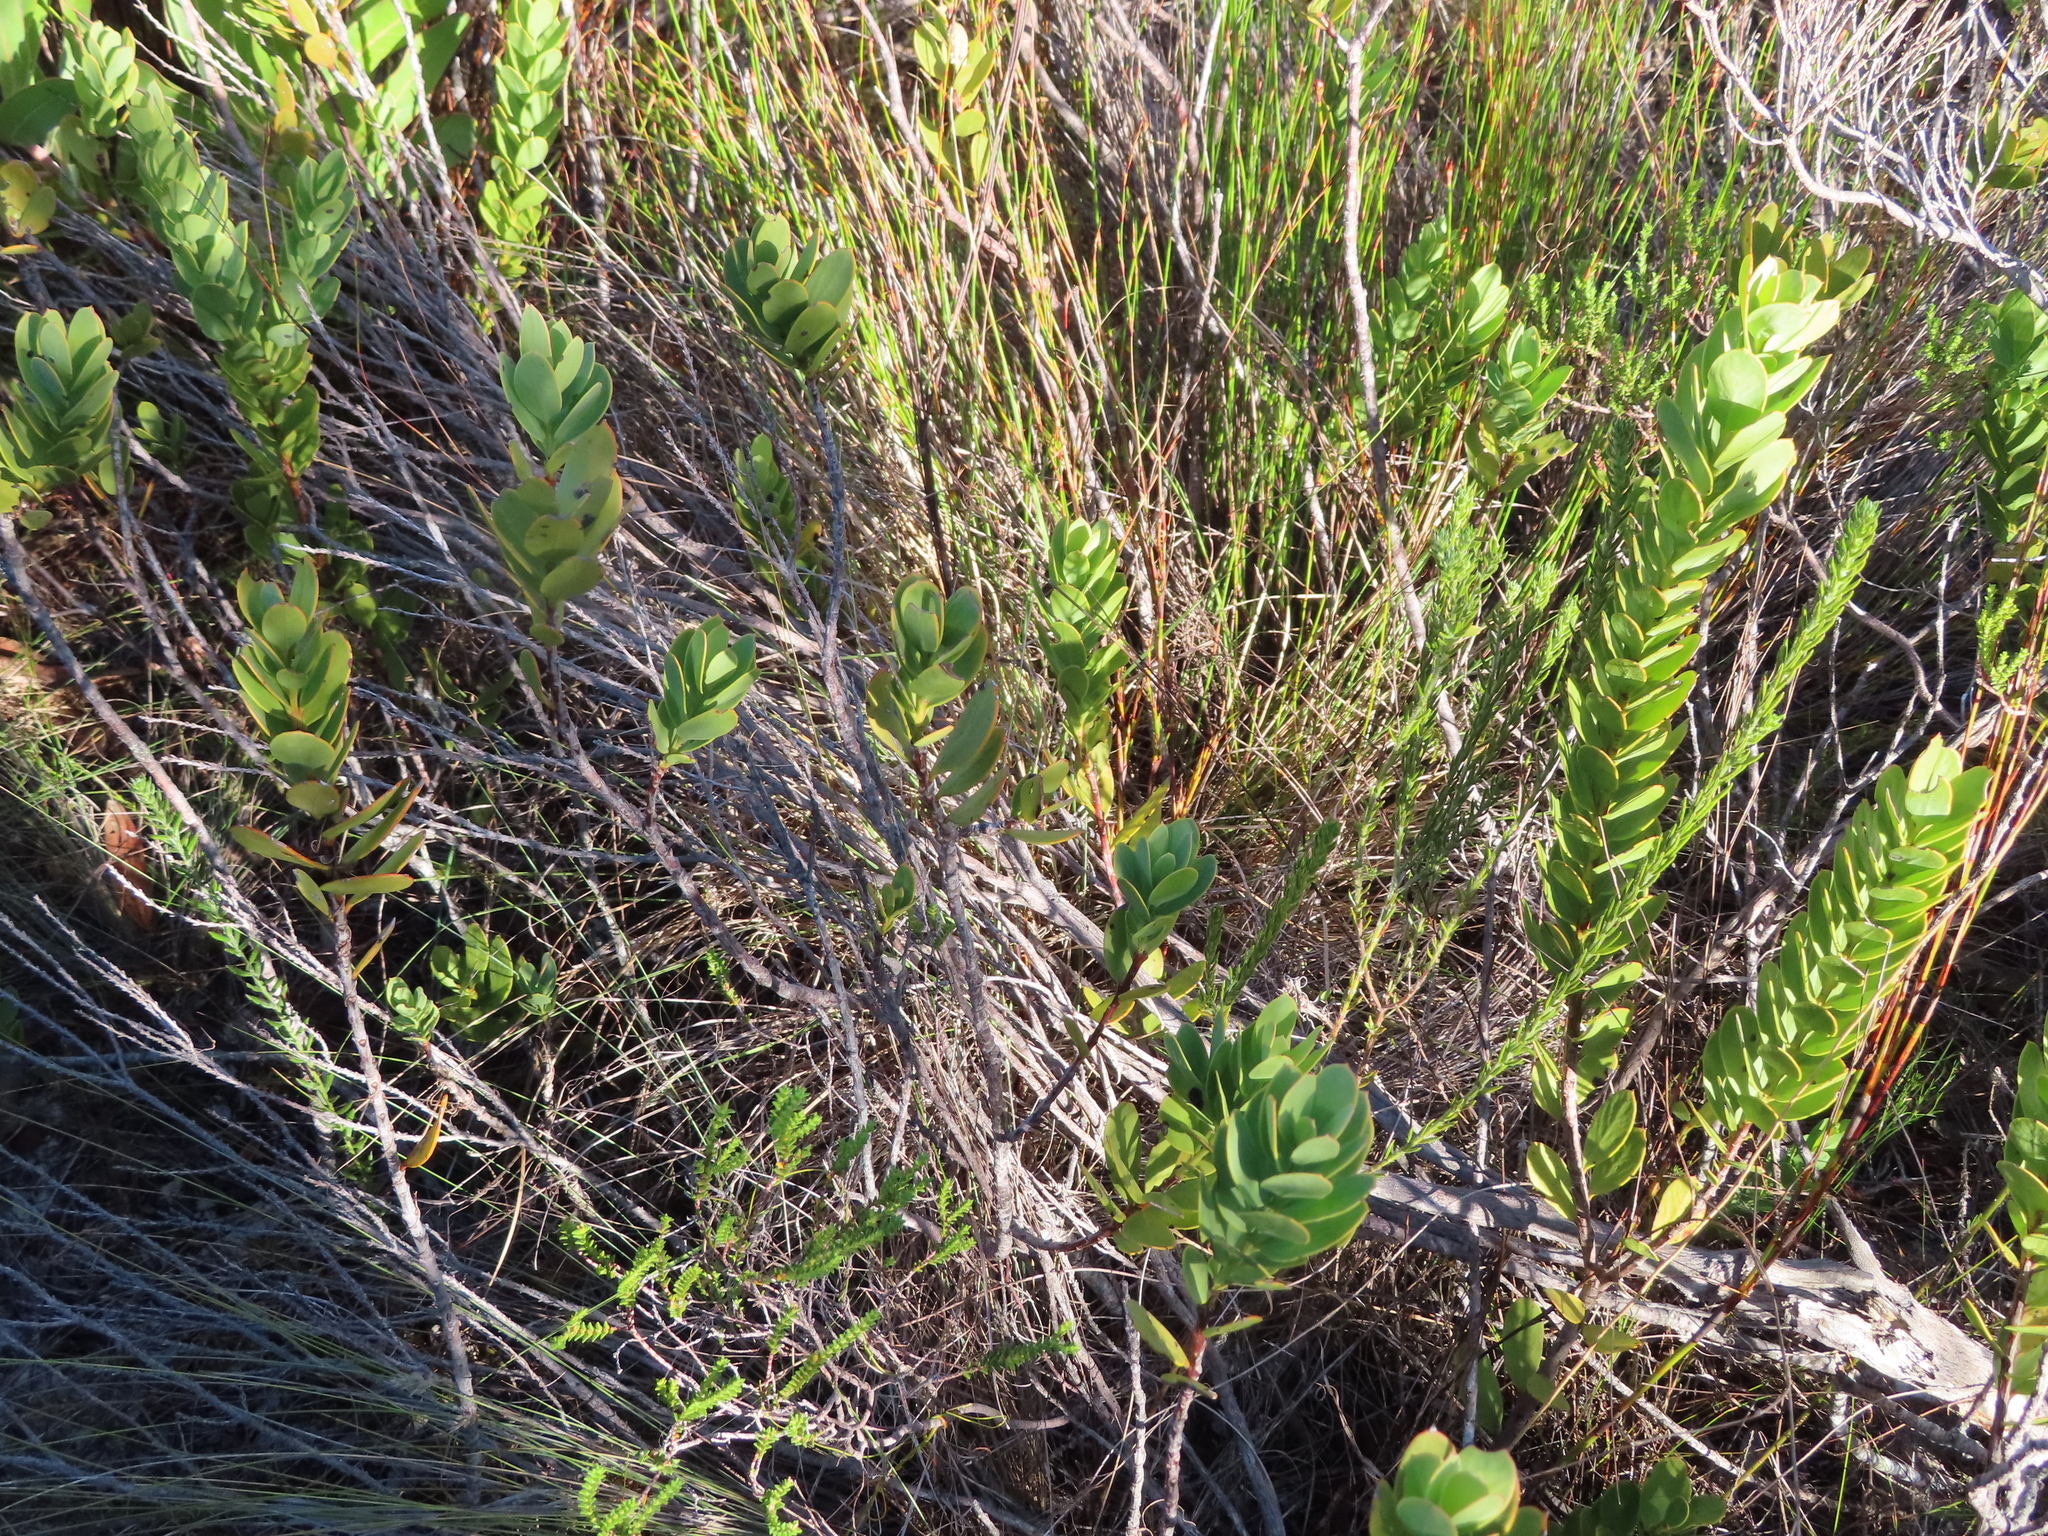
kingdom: Plantae
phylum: Tracheophyta
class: Magnoliopsida
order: Santalales
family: Santalaceae
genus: Osyris
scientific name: Osyris compressa
